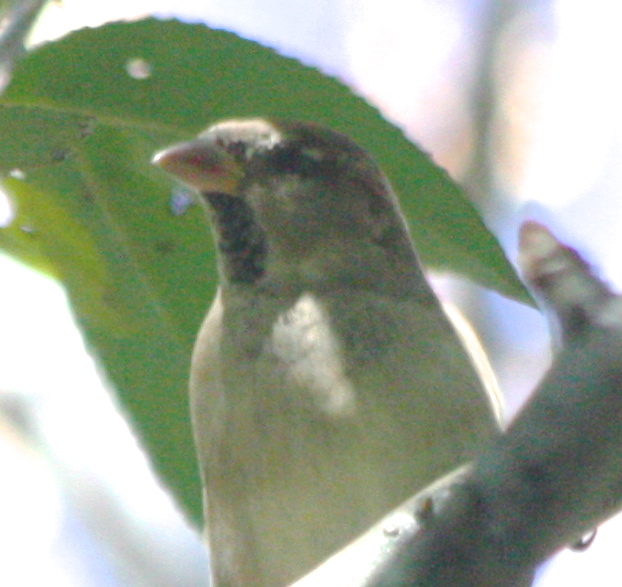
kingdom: Animalia
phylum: Chordata
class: Aves
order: Passeriformes
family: Passeridae
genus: Passer
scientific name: Passer domesticus
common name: House sparrow
